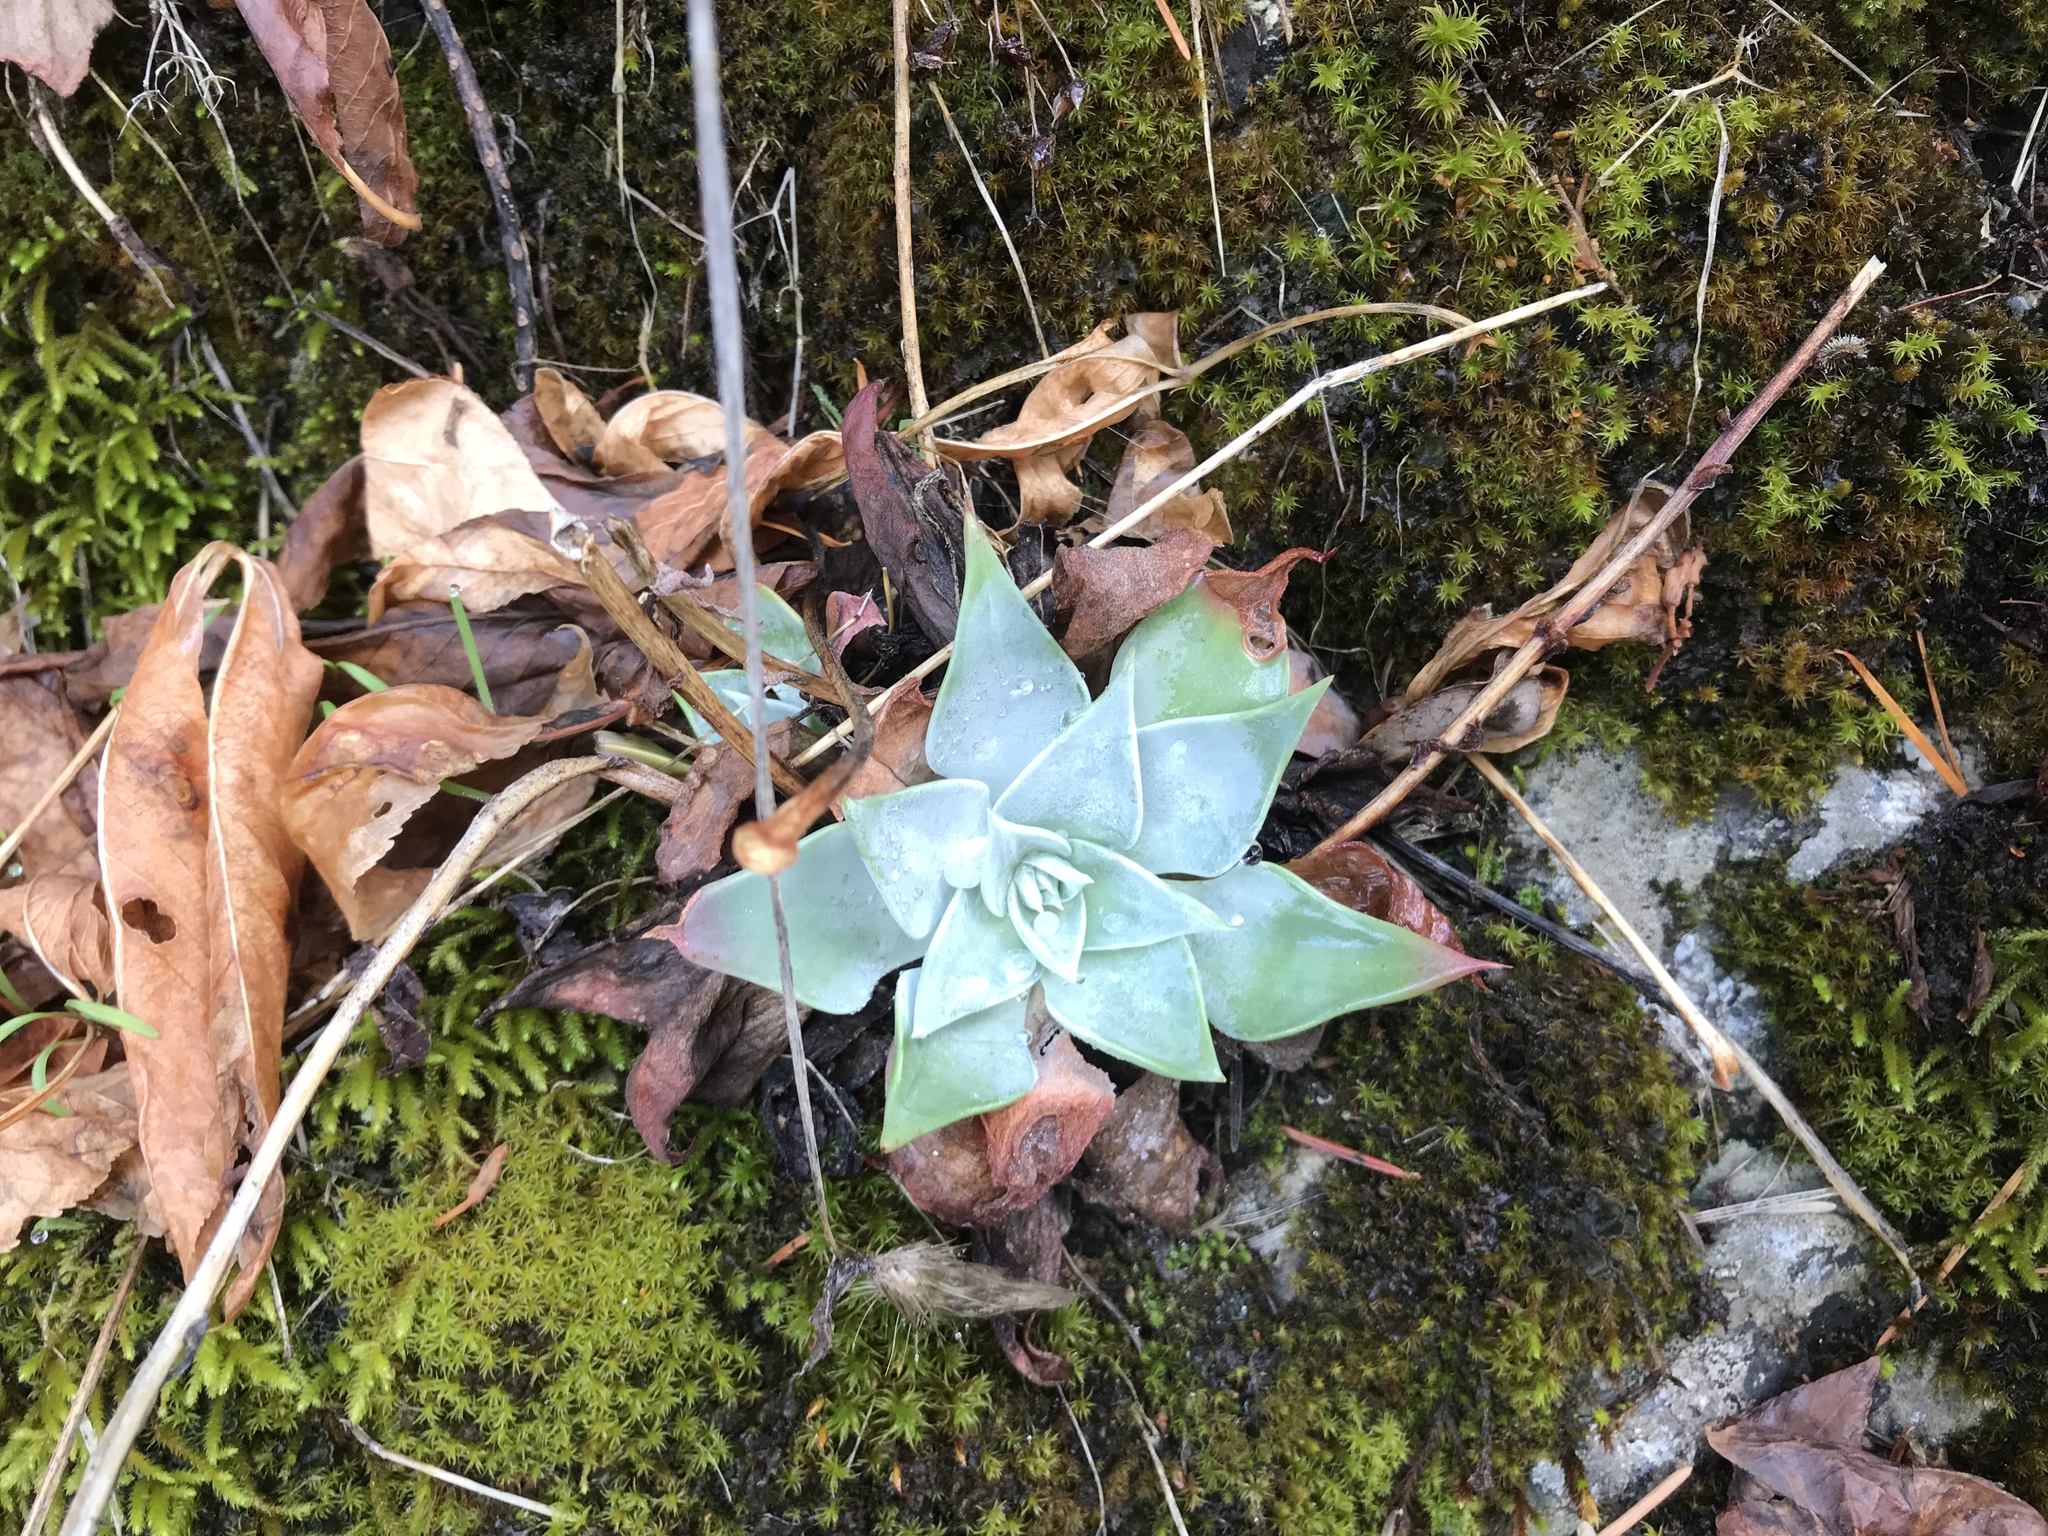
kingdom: Plantae
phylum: Tracheophyta
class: Magnoliopsida
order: Saxifragales
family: Crassulaceae
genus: Dudleya
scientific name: Dudleya cymosa
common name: Canyon dudleya
